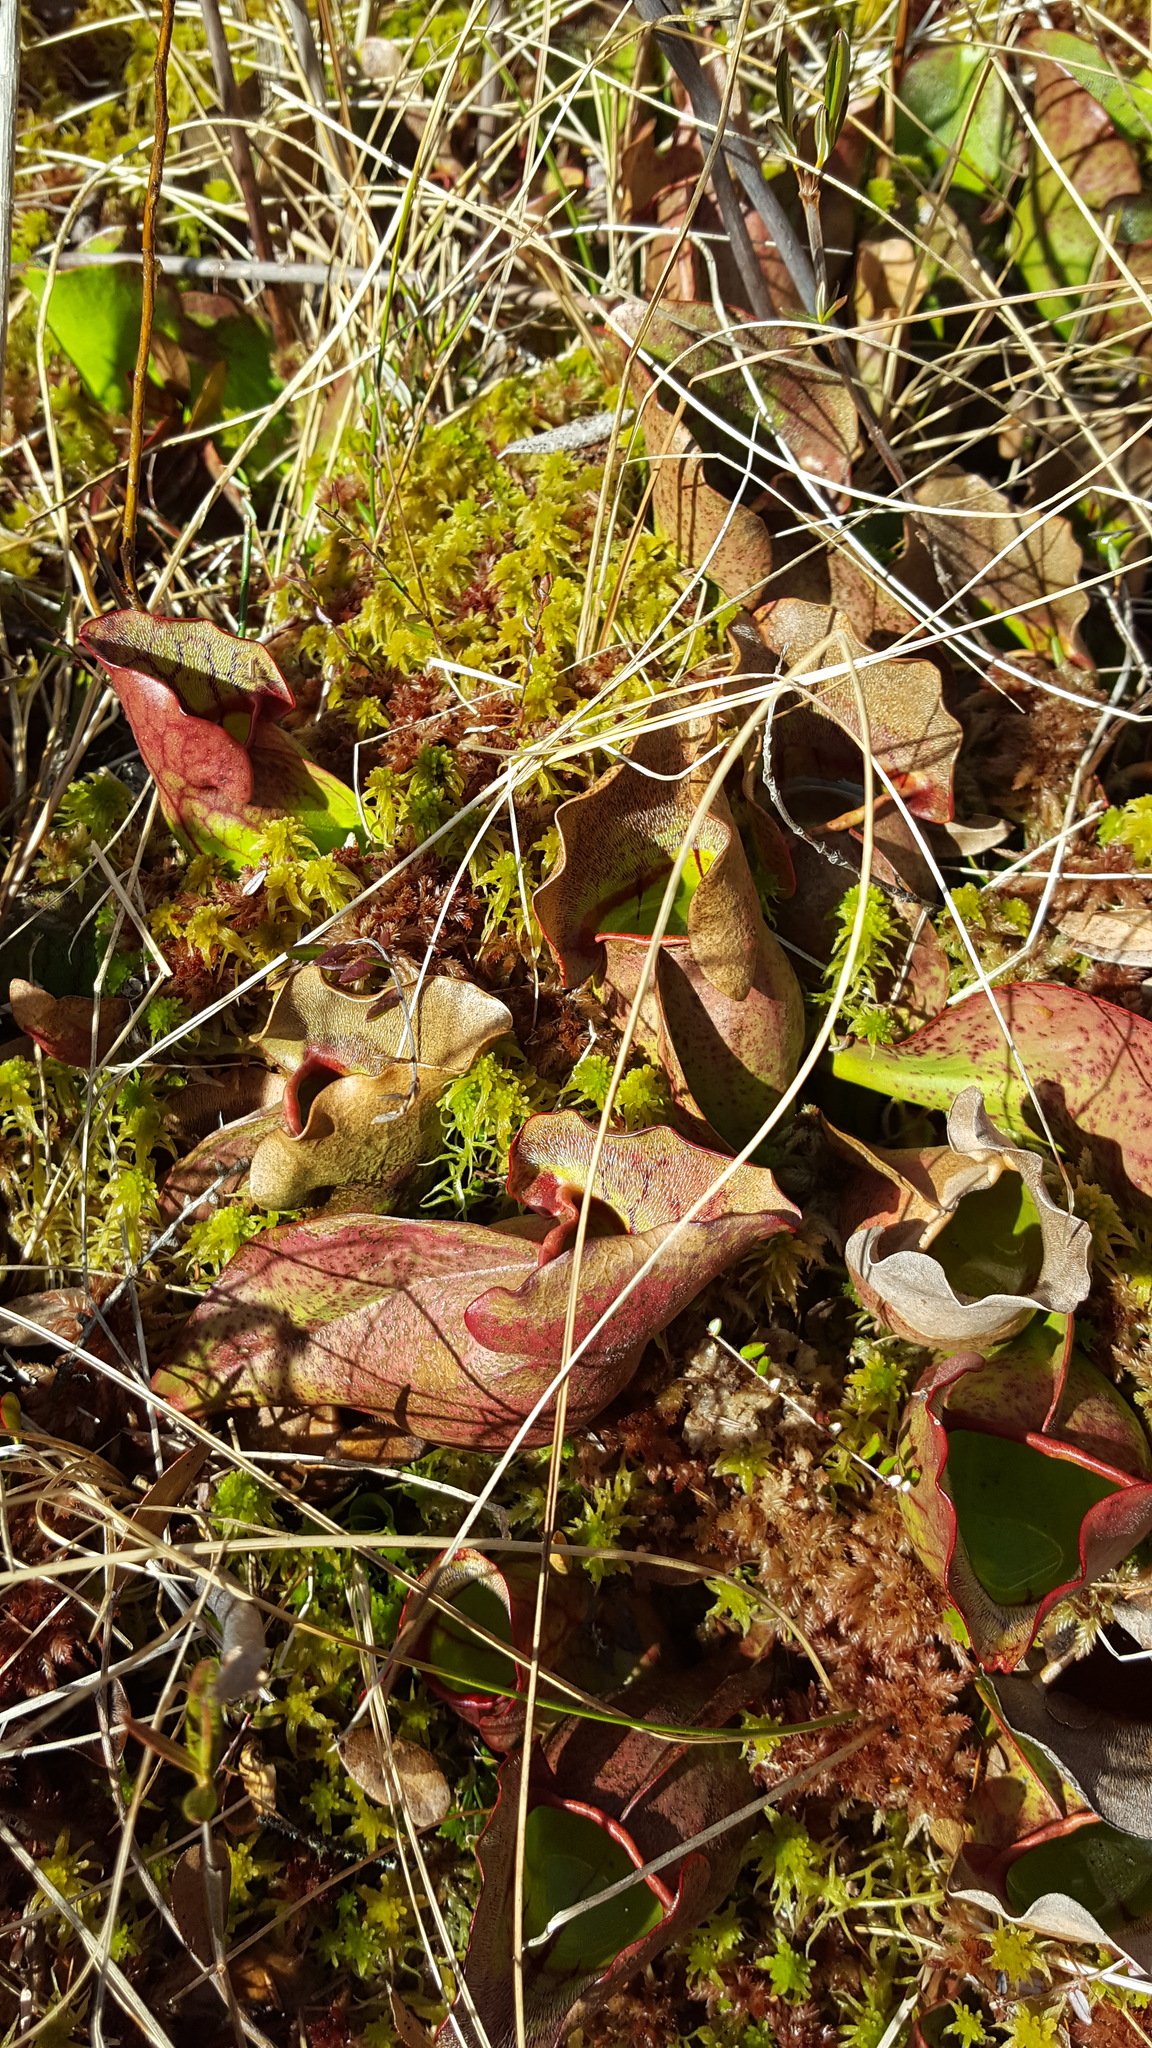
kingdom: Plantae
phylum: Tracheophyta
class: Magnoliopsida
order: Ericales
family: Sarraceniaceae
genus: Sarracenia
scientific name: Sarracenia purpurea
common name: Pitcherplant
